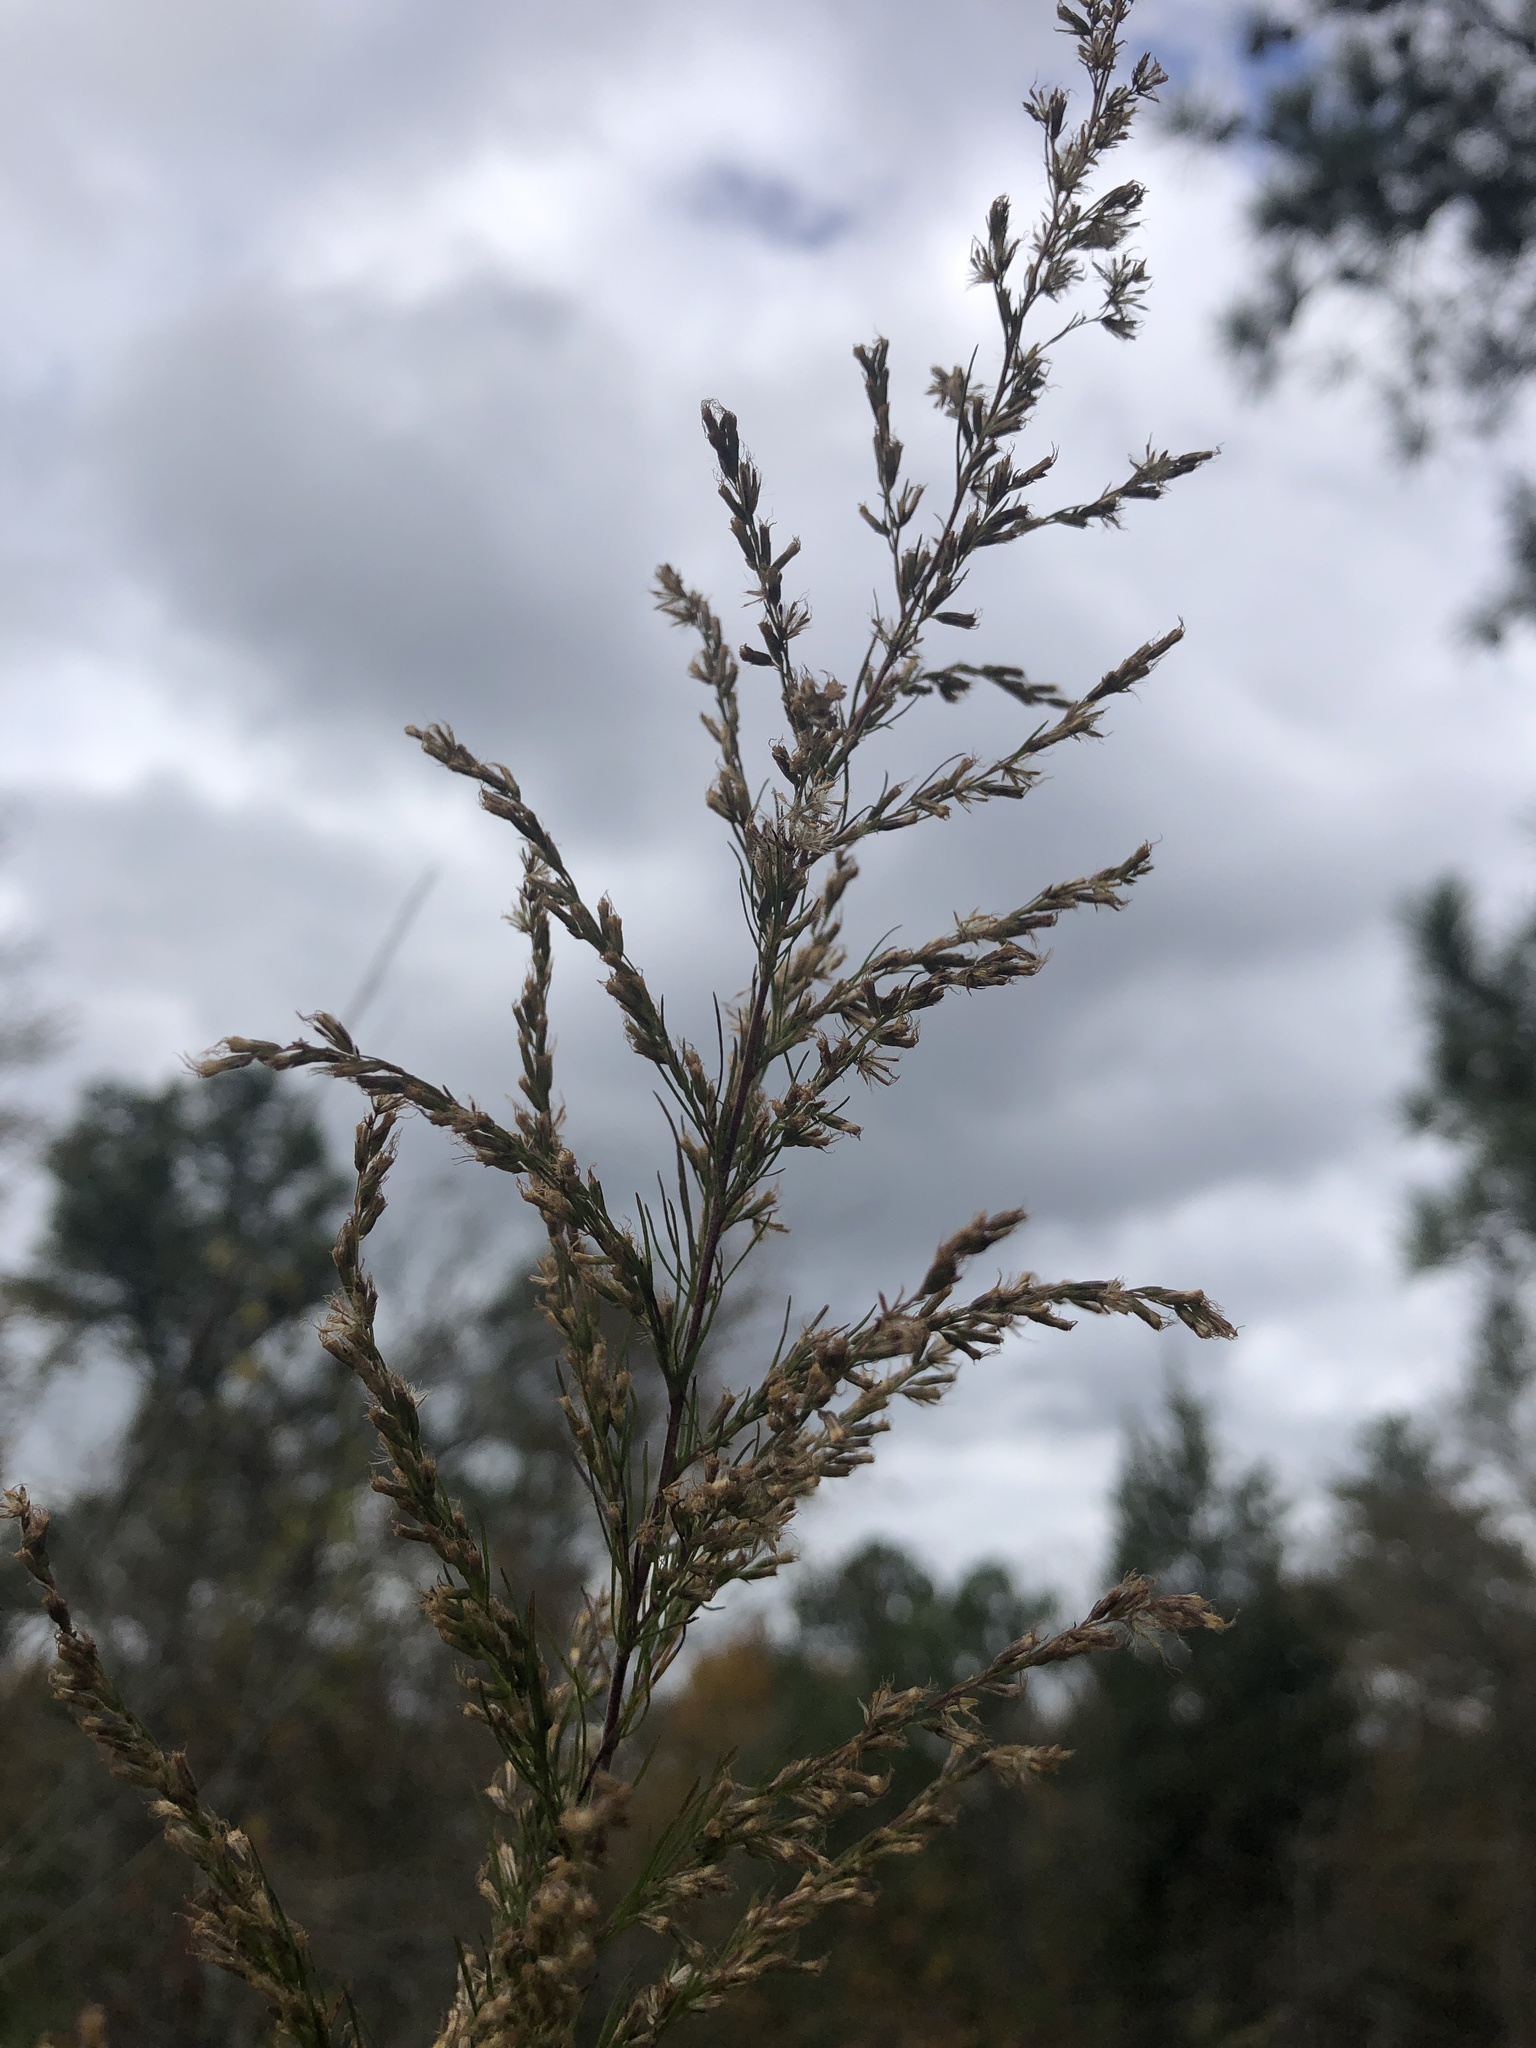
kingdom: Plantae
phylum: Tracheophyta
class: Magnoliopsida
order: Asterales
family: Asteraceae
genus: Eupatorium
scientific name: Eupatorium capillifolium
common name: Dog-fennel
